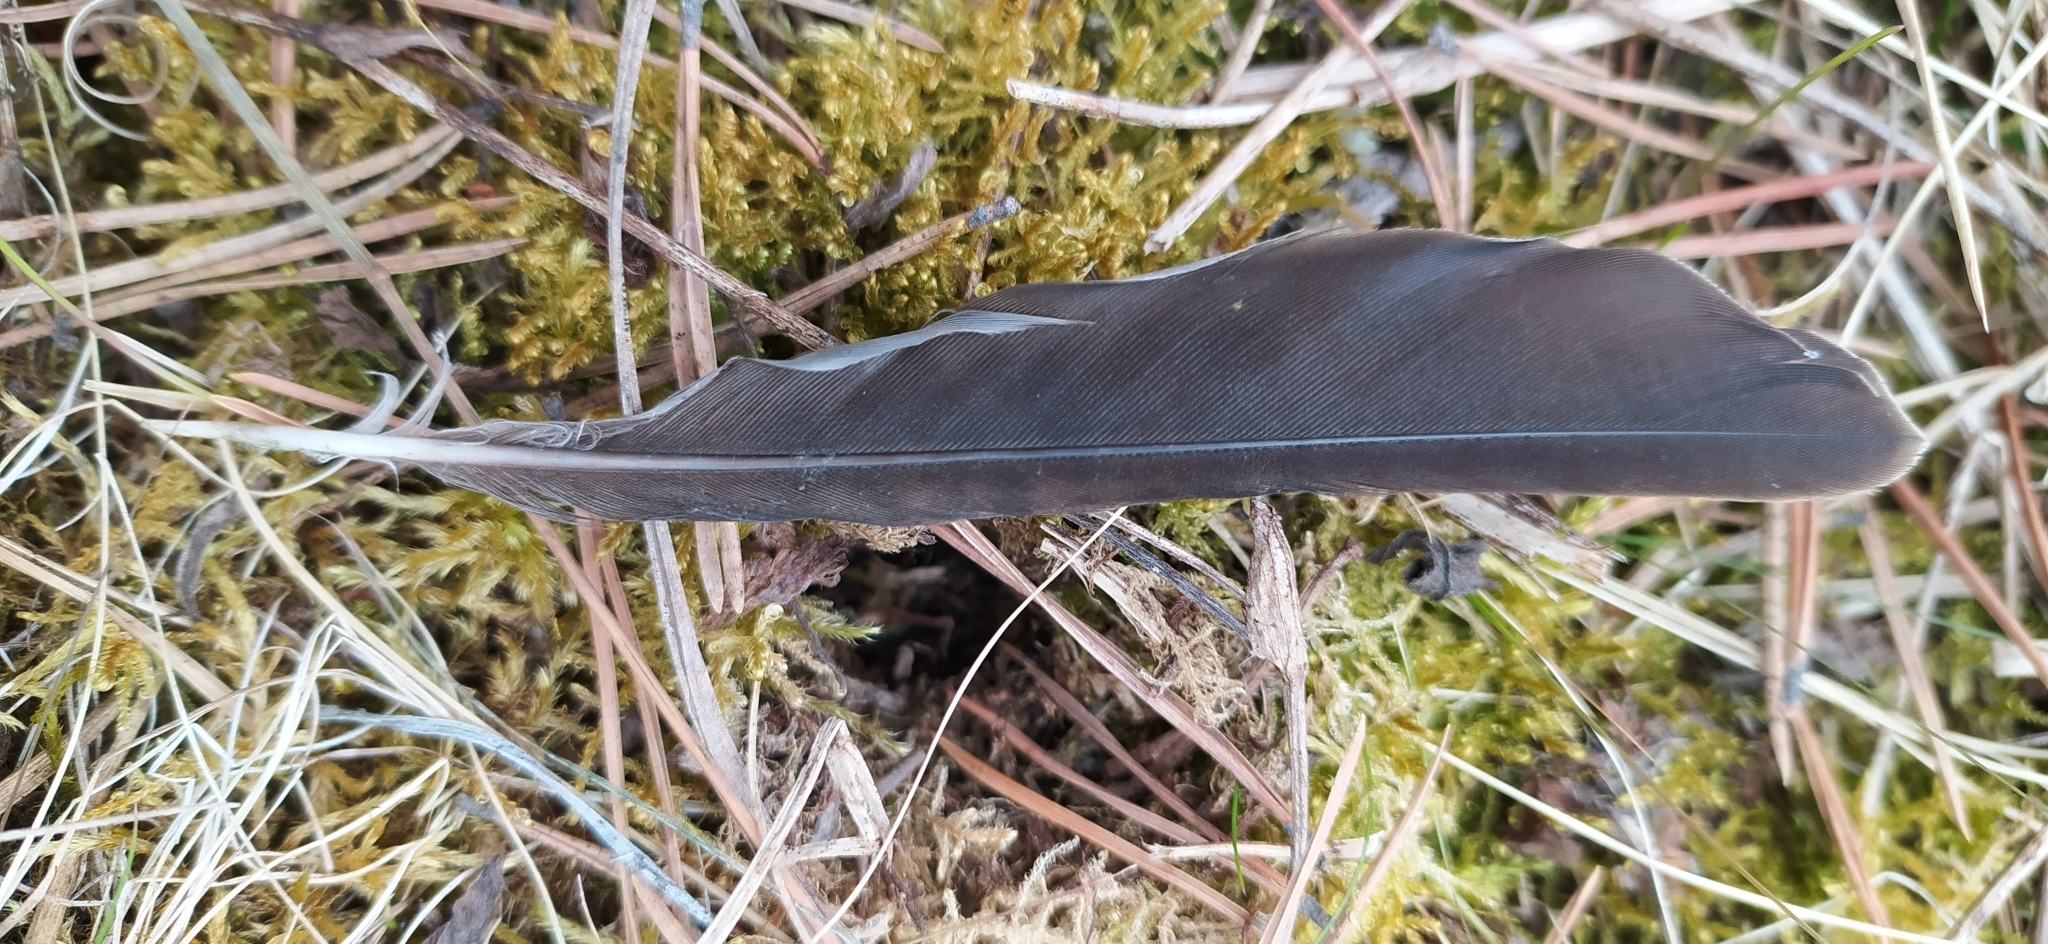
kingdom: Animalia
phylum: Chordata
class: Aves
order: Passeriformes
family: Turdidae
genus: Turdus
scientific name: Turdus pilaris
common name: Fieldfare
